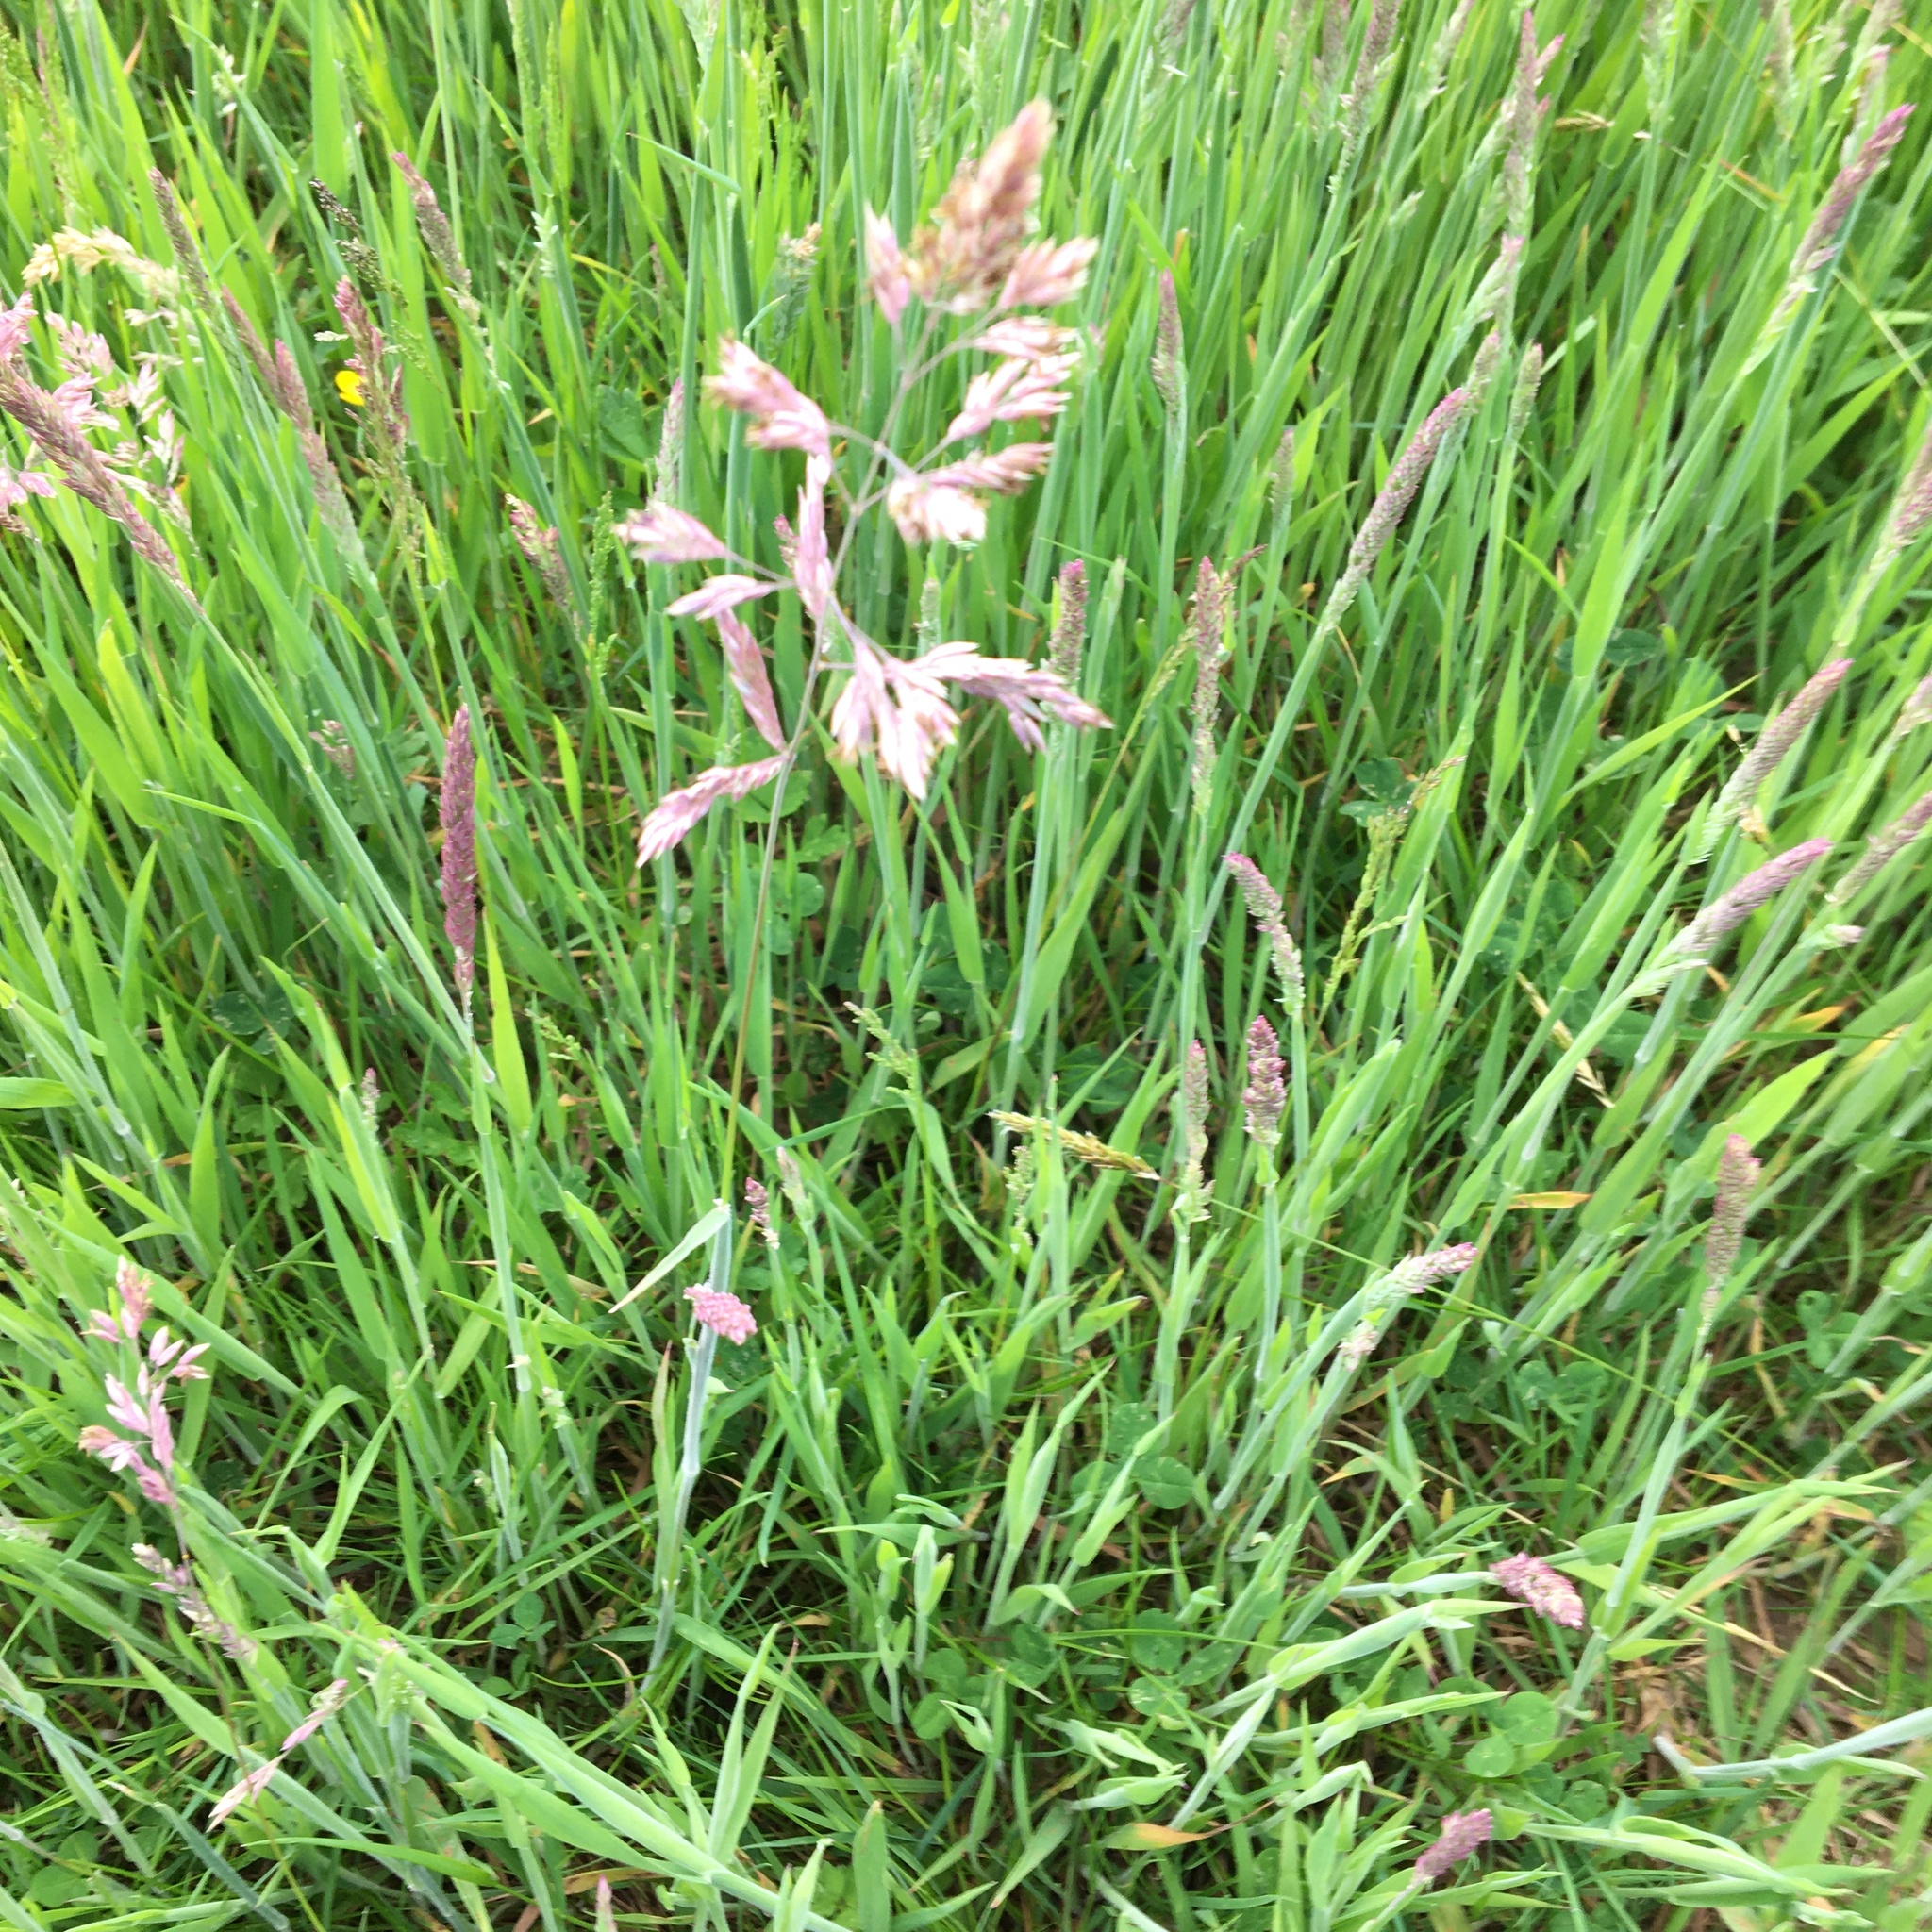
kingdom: Plantae
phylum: Tracheophyta
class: Liliopsida
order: Poales
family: Poaceae
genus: Holcus
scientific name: Holcus lanatus
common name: Yorkshire-fog
